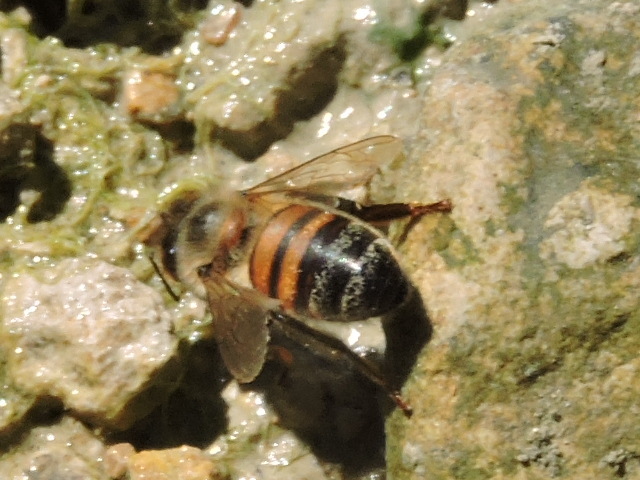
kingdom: Animalia
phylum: Arthropoda
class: Insecta
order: Hymenoptera
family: Apidae
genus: Apis
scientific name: Apis mellifera
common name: Honey bee
